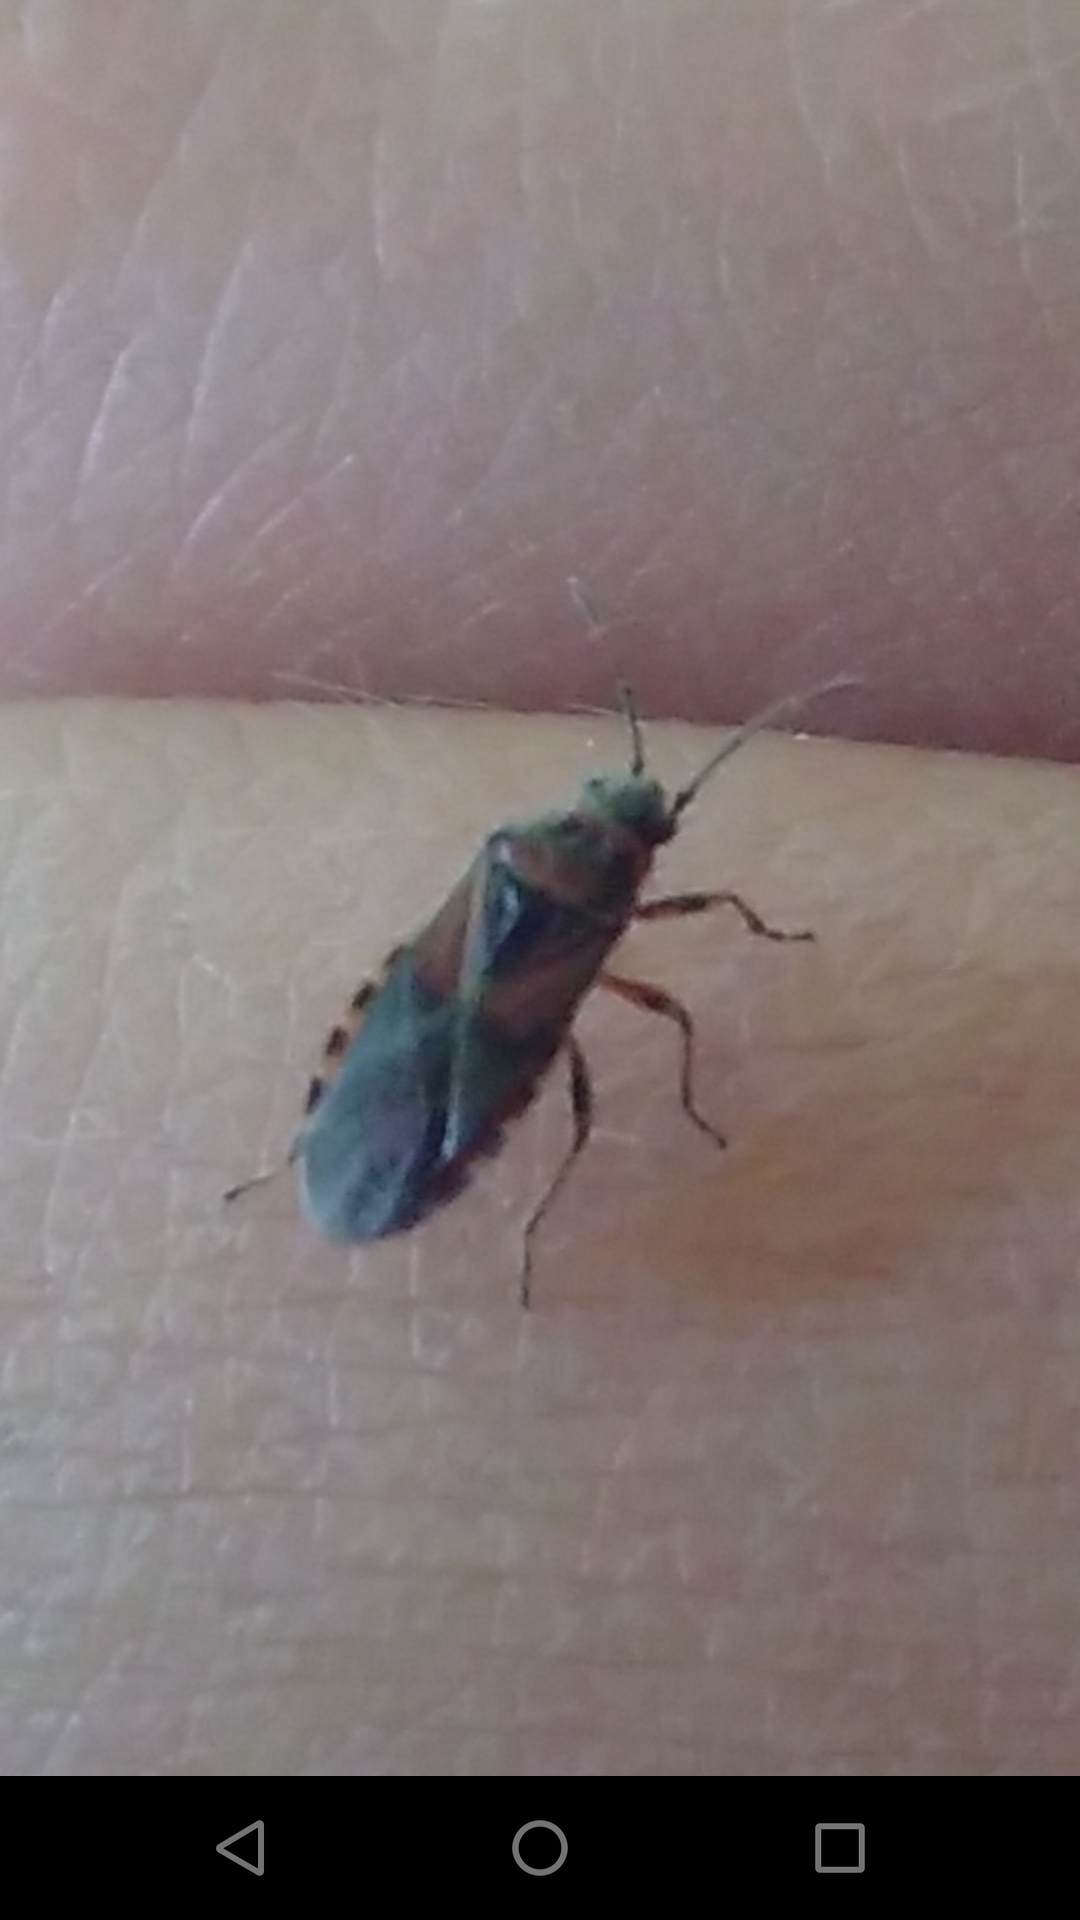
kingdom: Animalia
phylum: Arthropoda
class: Insecta
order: Hemiptera
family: Lygaeidae
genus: Arocatus
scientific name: Arocatus melanocephalus
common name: Lygaeid bug
